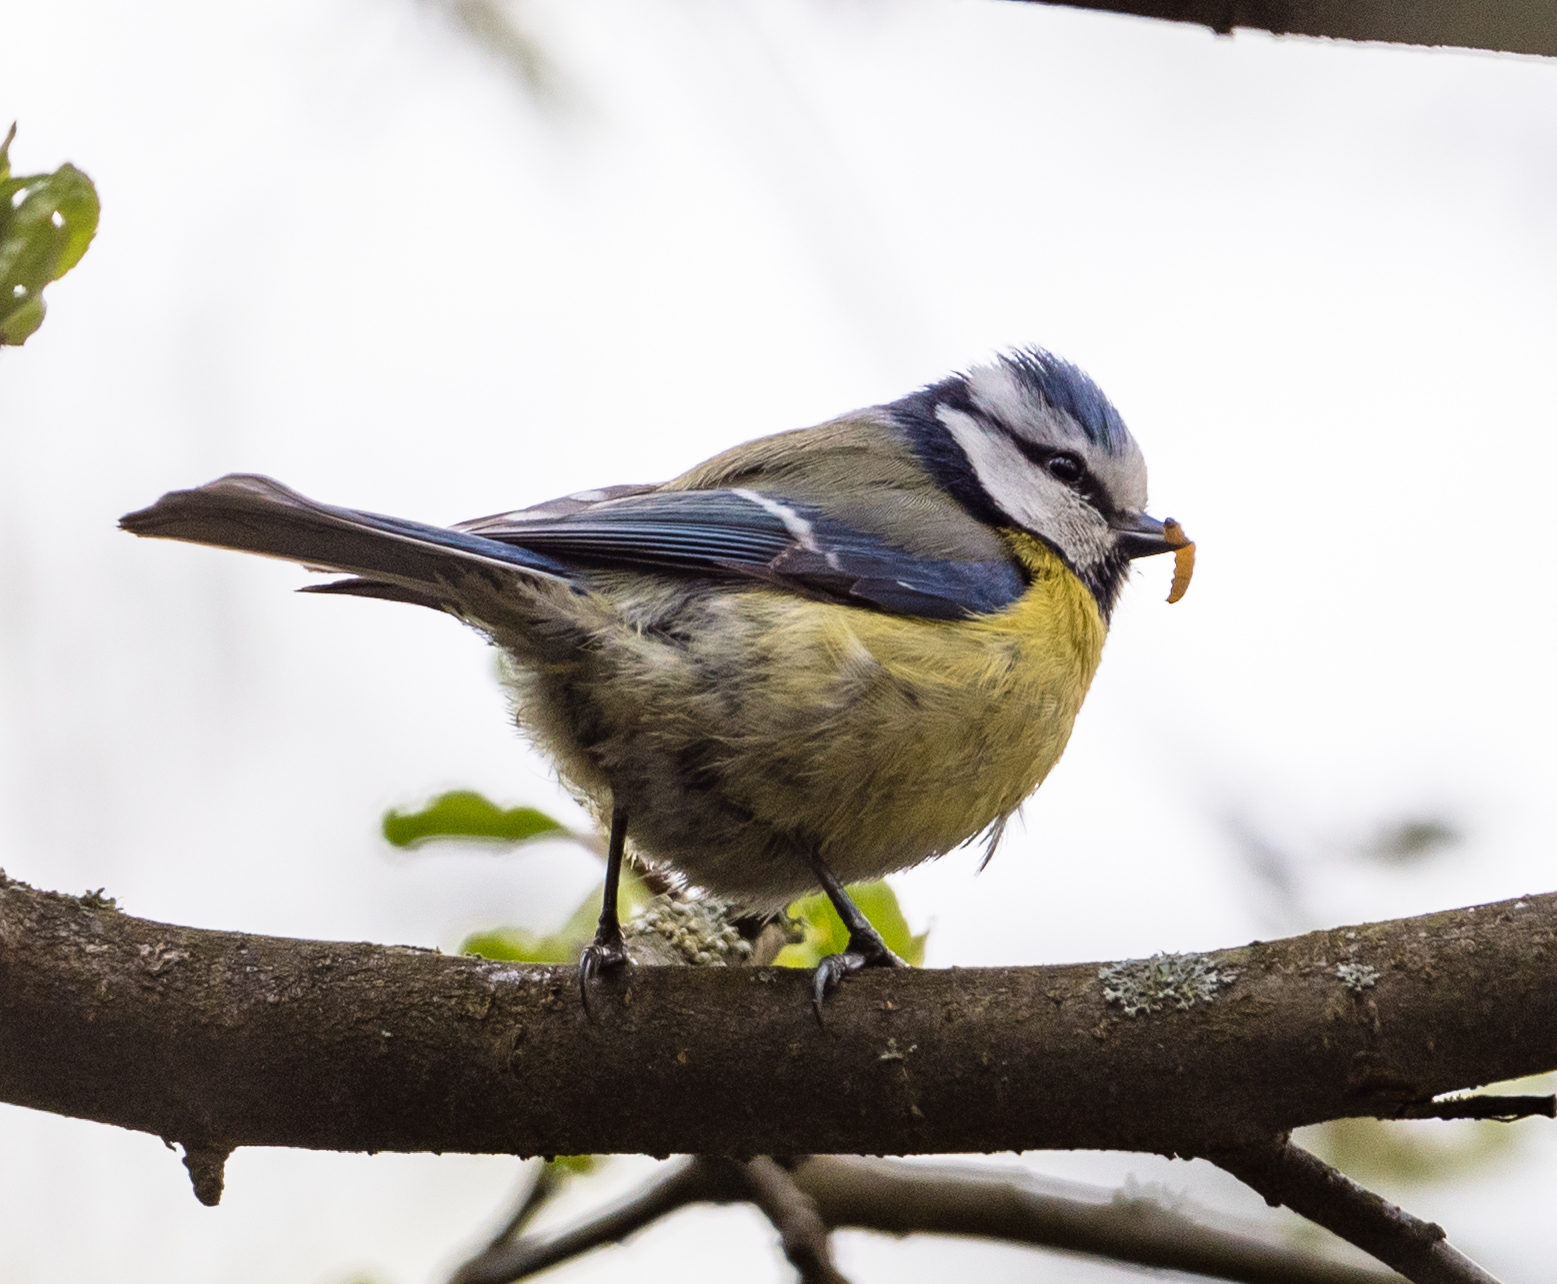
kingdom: Animalia
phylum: Chordata
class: Aves
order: Passeriformes
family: Paridae
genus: Cyanistes
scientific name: Cyanistes caeruleus
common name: Eurasian blue tit
